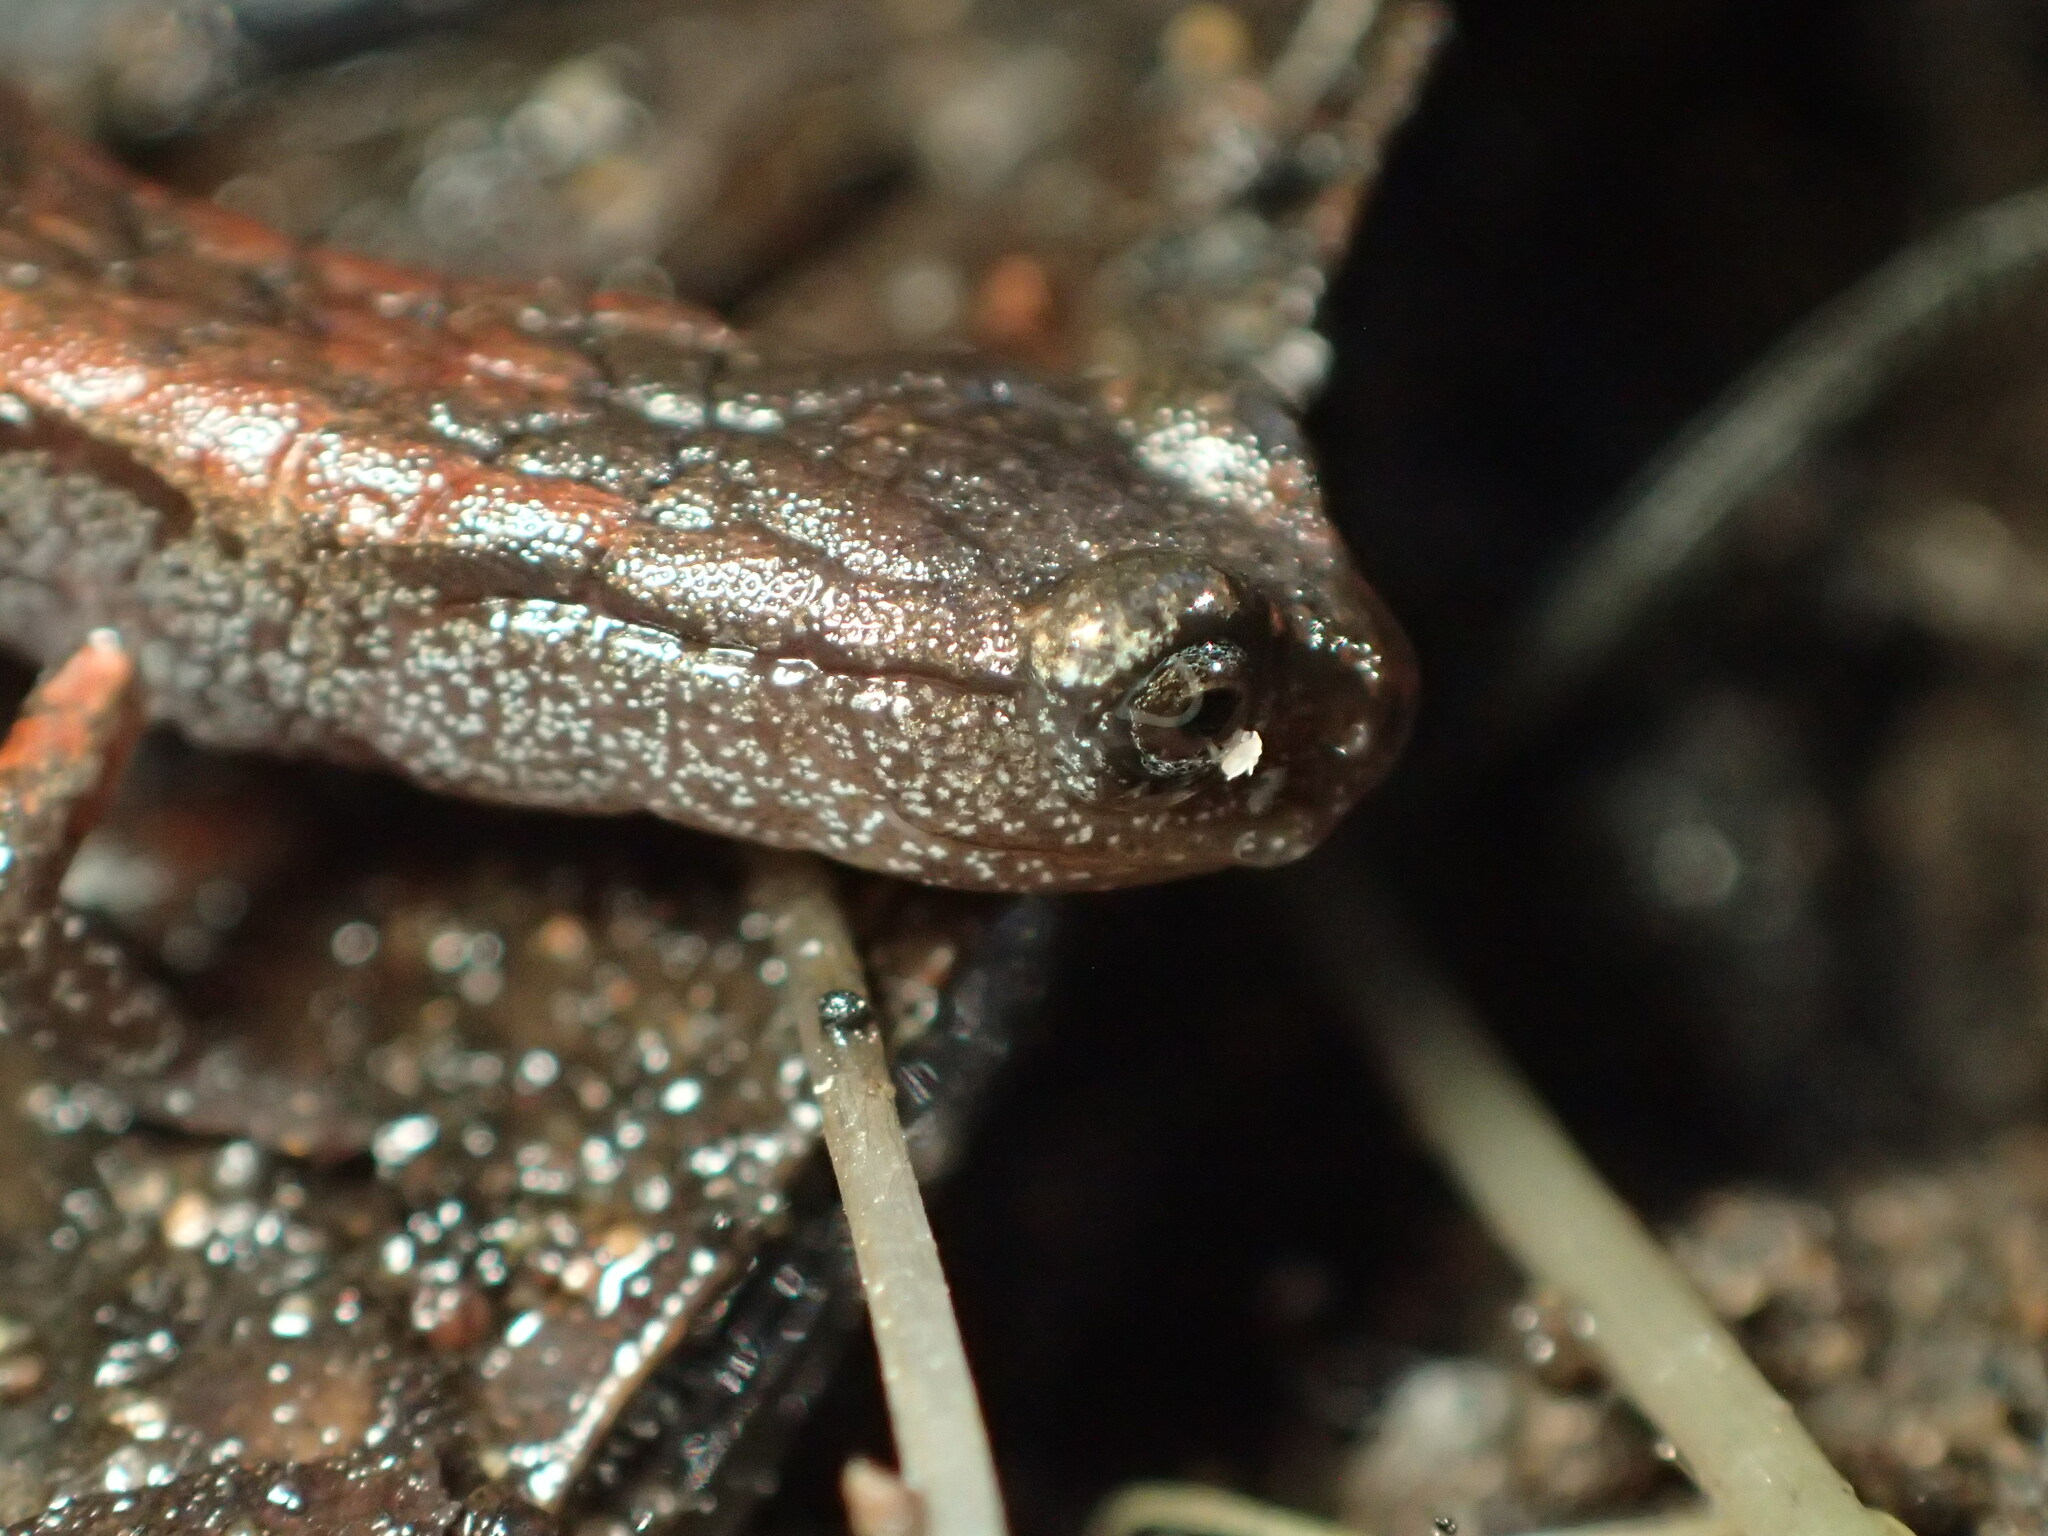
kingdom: Animalia
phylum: Chordata
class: Amphibia
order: Caudata
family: Plethodontidae
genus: Batrachoseps
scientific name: Batrachoseps attenuatus
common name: California slender salamander
